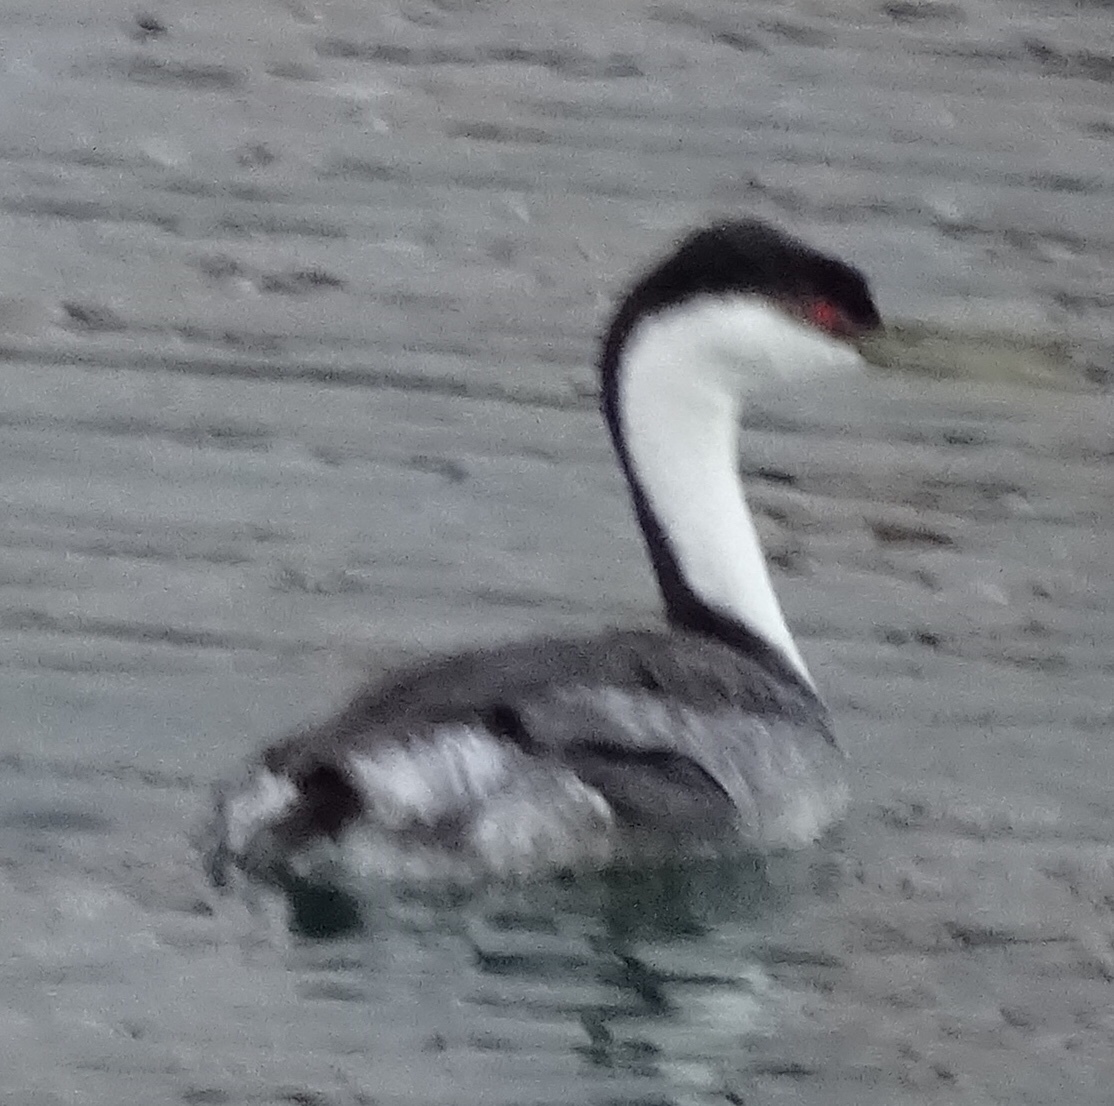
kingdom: Animalia
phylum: Chordata
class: Aves
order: Podicipediformes
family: Podicipedidae
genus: Aechmophorus
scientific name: Aechmophorus occidentalis
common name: Western grebe
